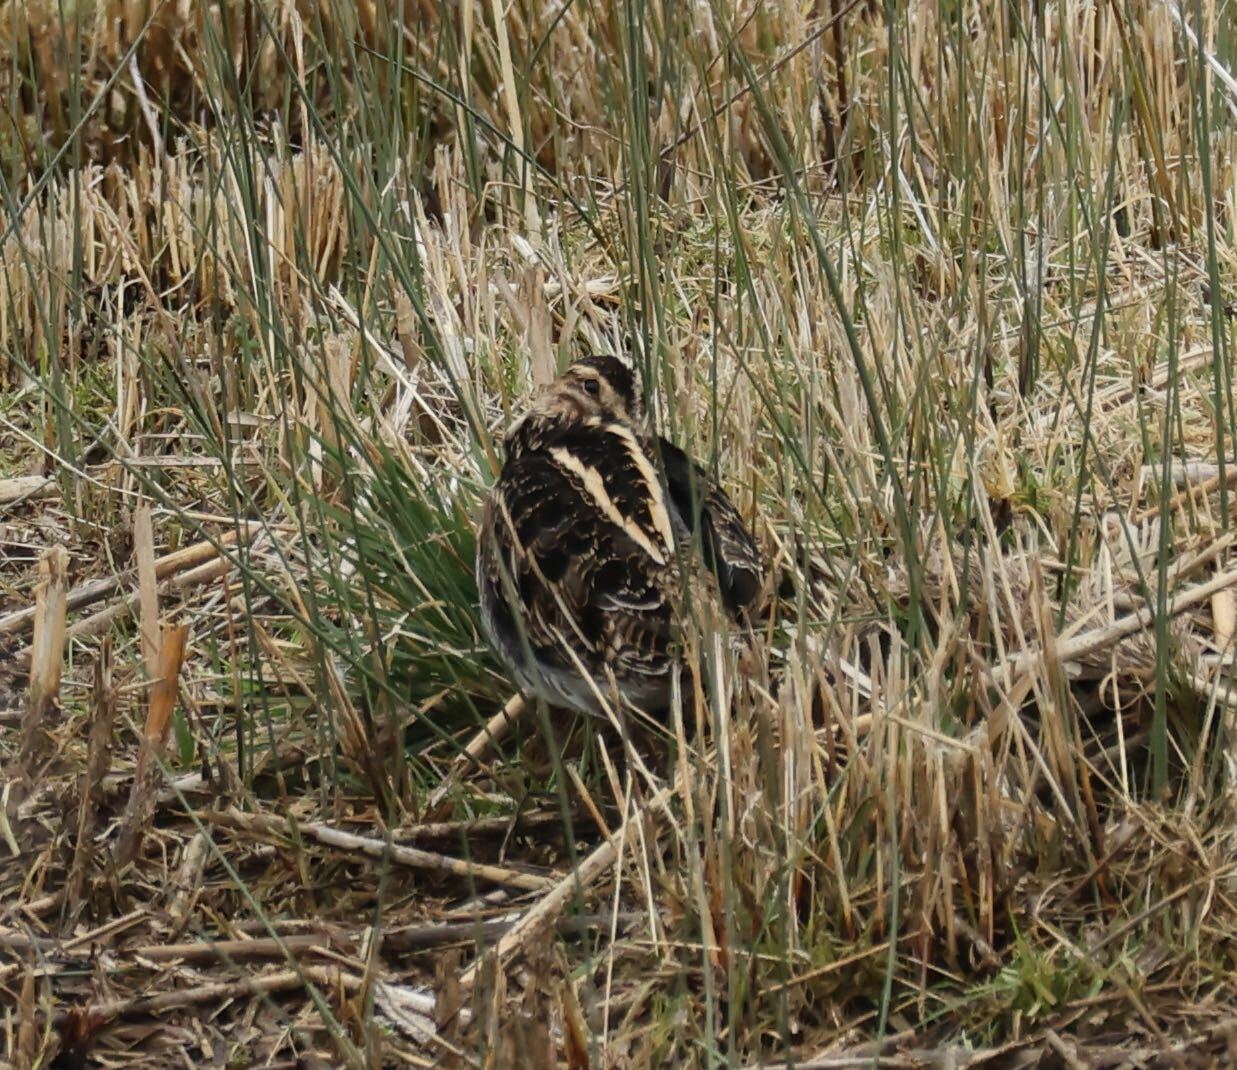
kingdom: Animalia
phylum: Chordata
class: Aves
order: Charadriiformes
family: Scolopacidae
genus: Gallinago
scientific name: Gallinago gallinago
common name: Common snipe
